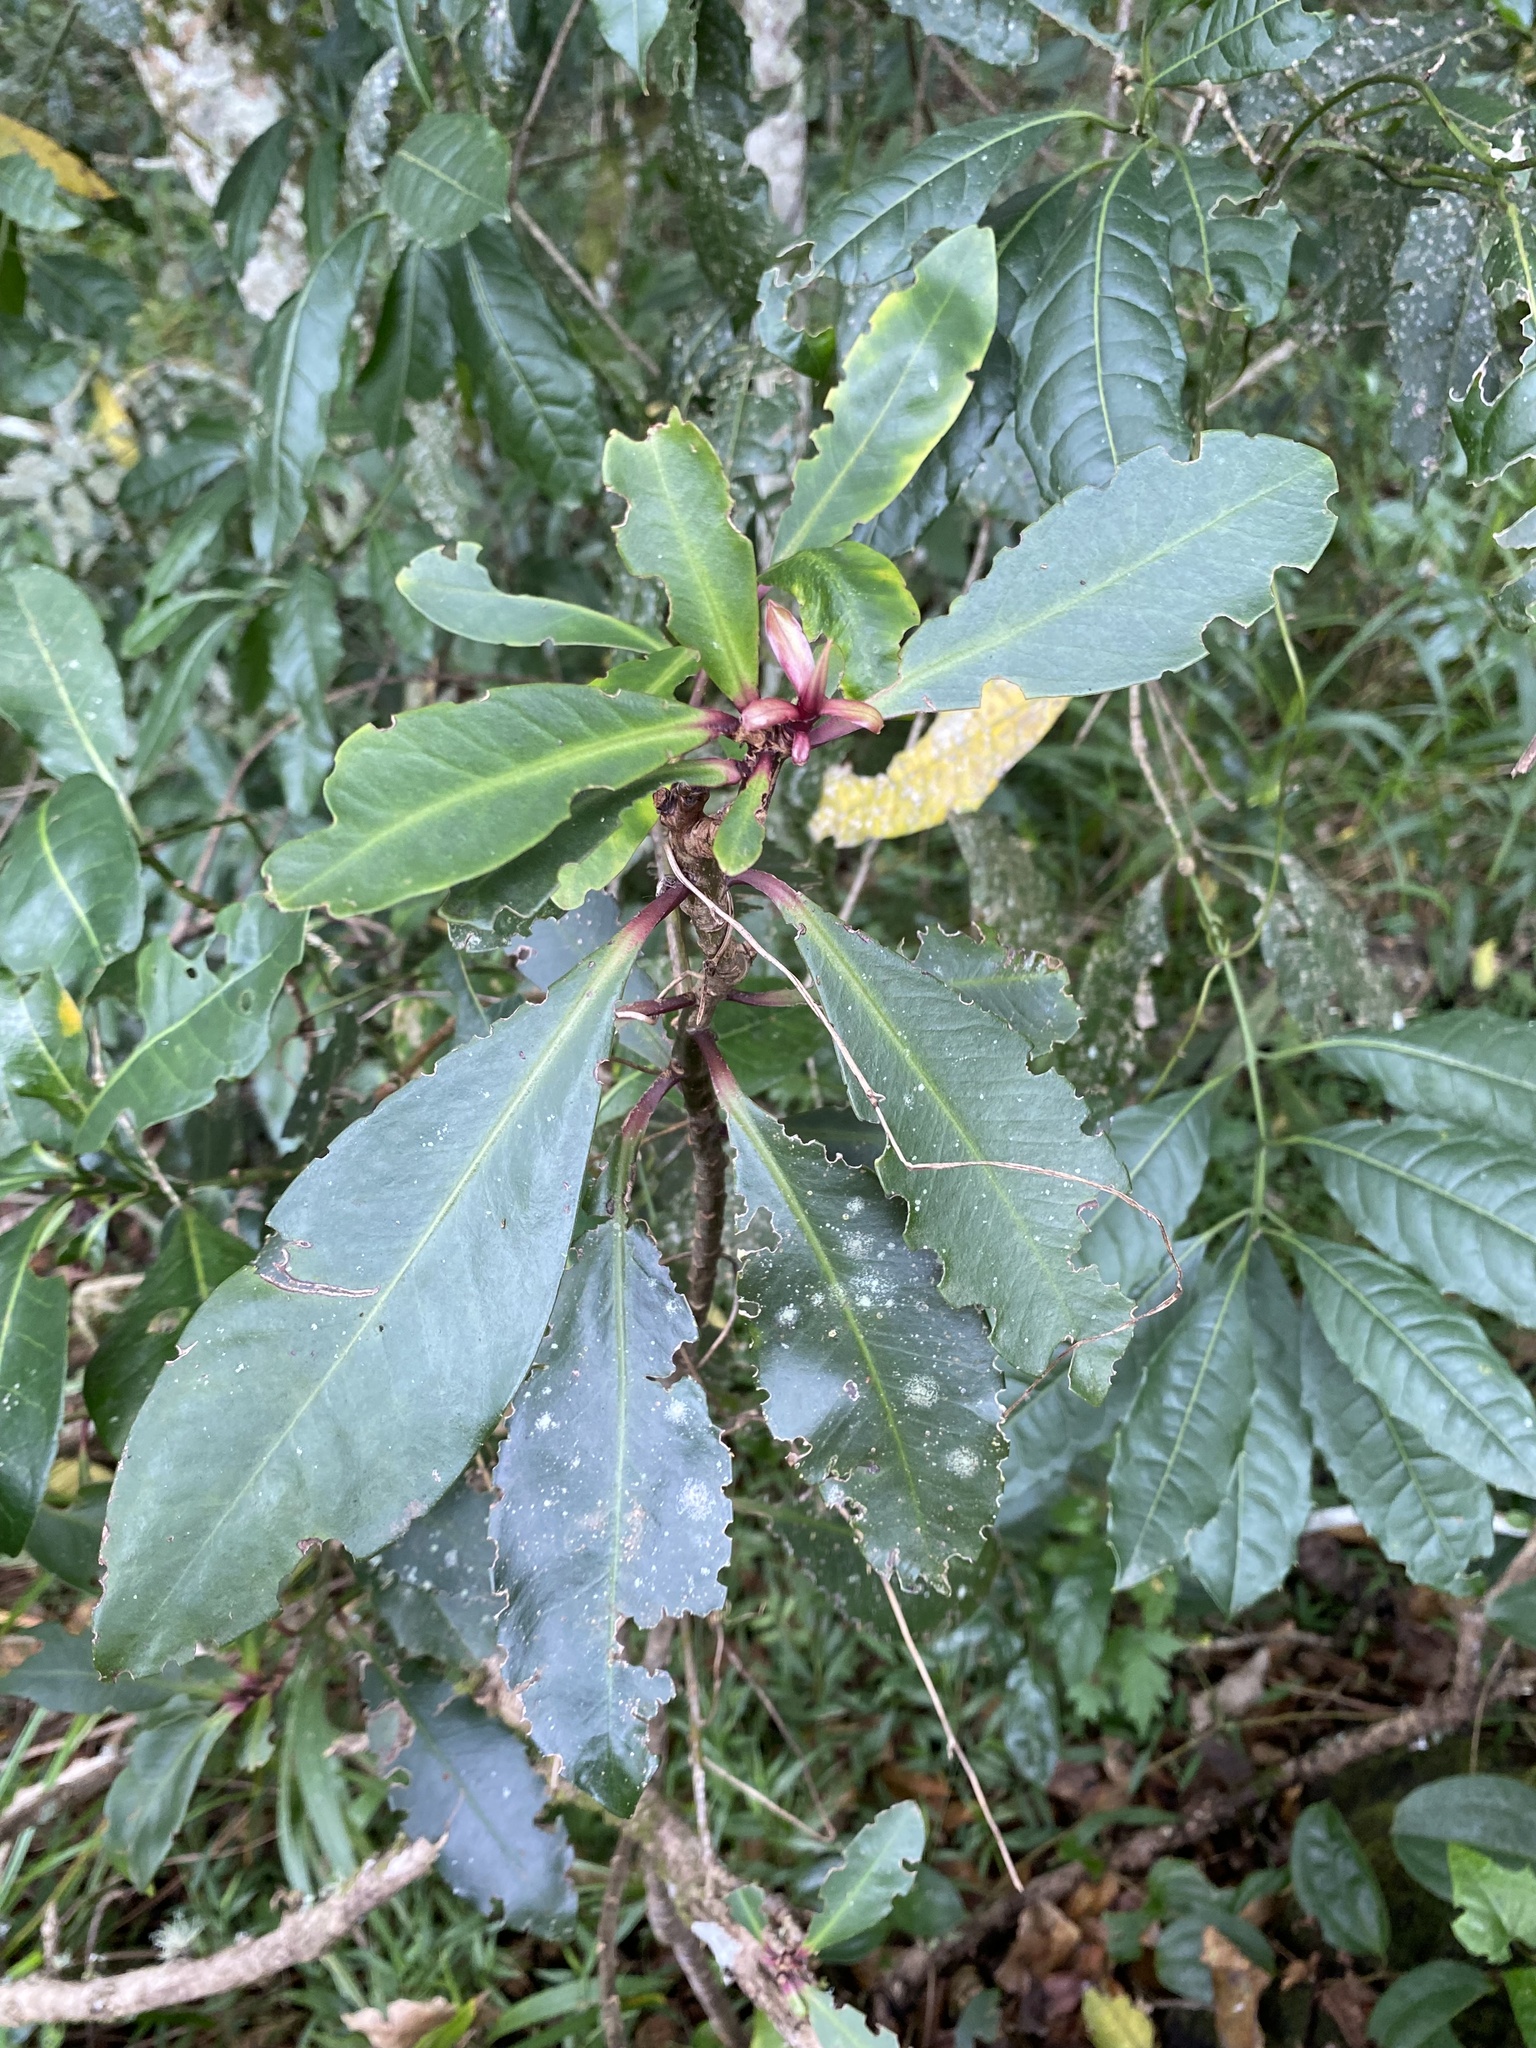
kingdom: Plantae
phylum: Tracheophyta
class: Magnoliopsida
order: Ericales
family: Primulaceae
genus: Myrsine
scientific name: Myrsine melanophloeos
